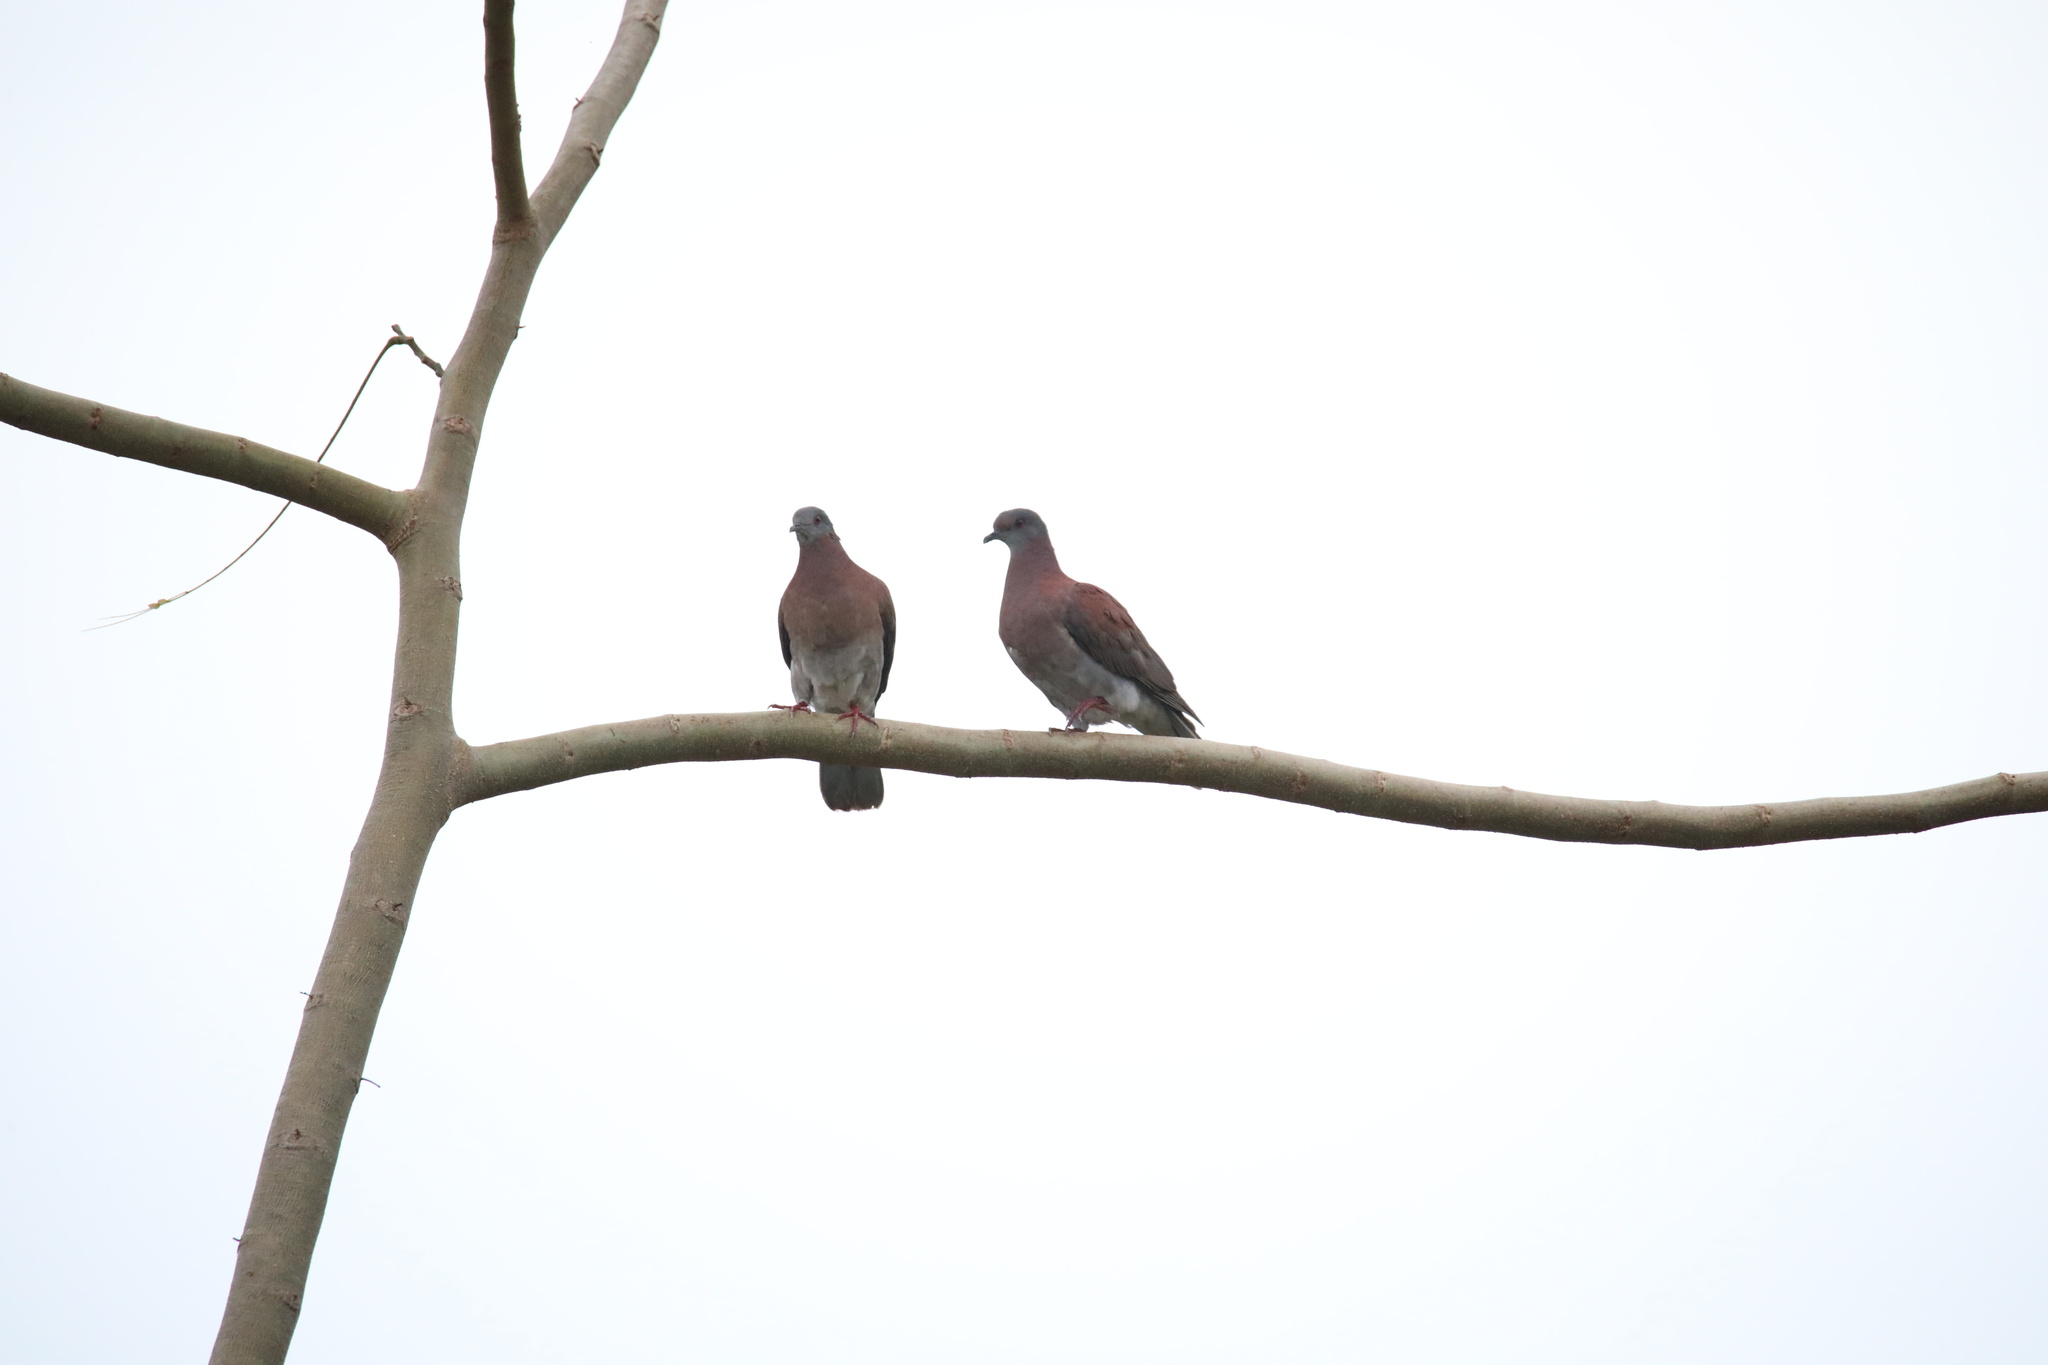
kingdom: Animalia
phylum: Chordata
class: Aves
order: Columbiformes
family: Columbidae
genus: Patagioenas
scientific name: Patagioenas cayennensis
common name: Pale-vented pigeon
